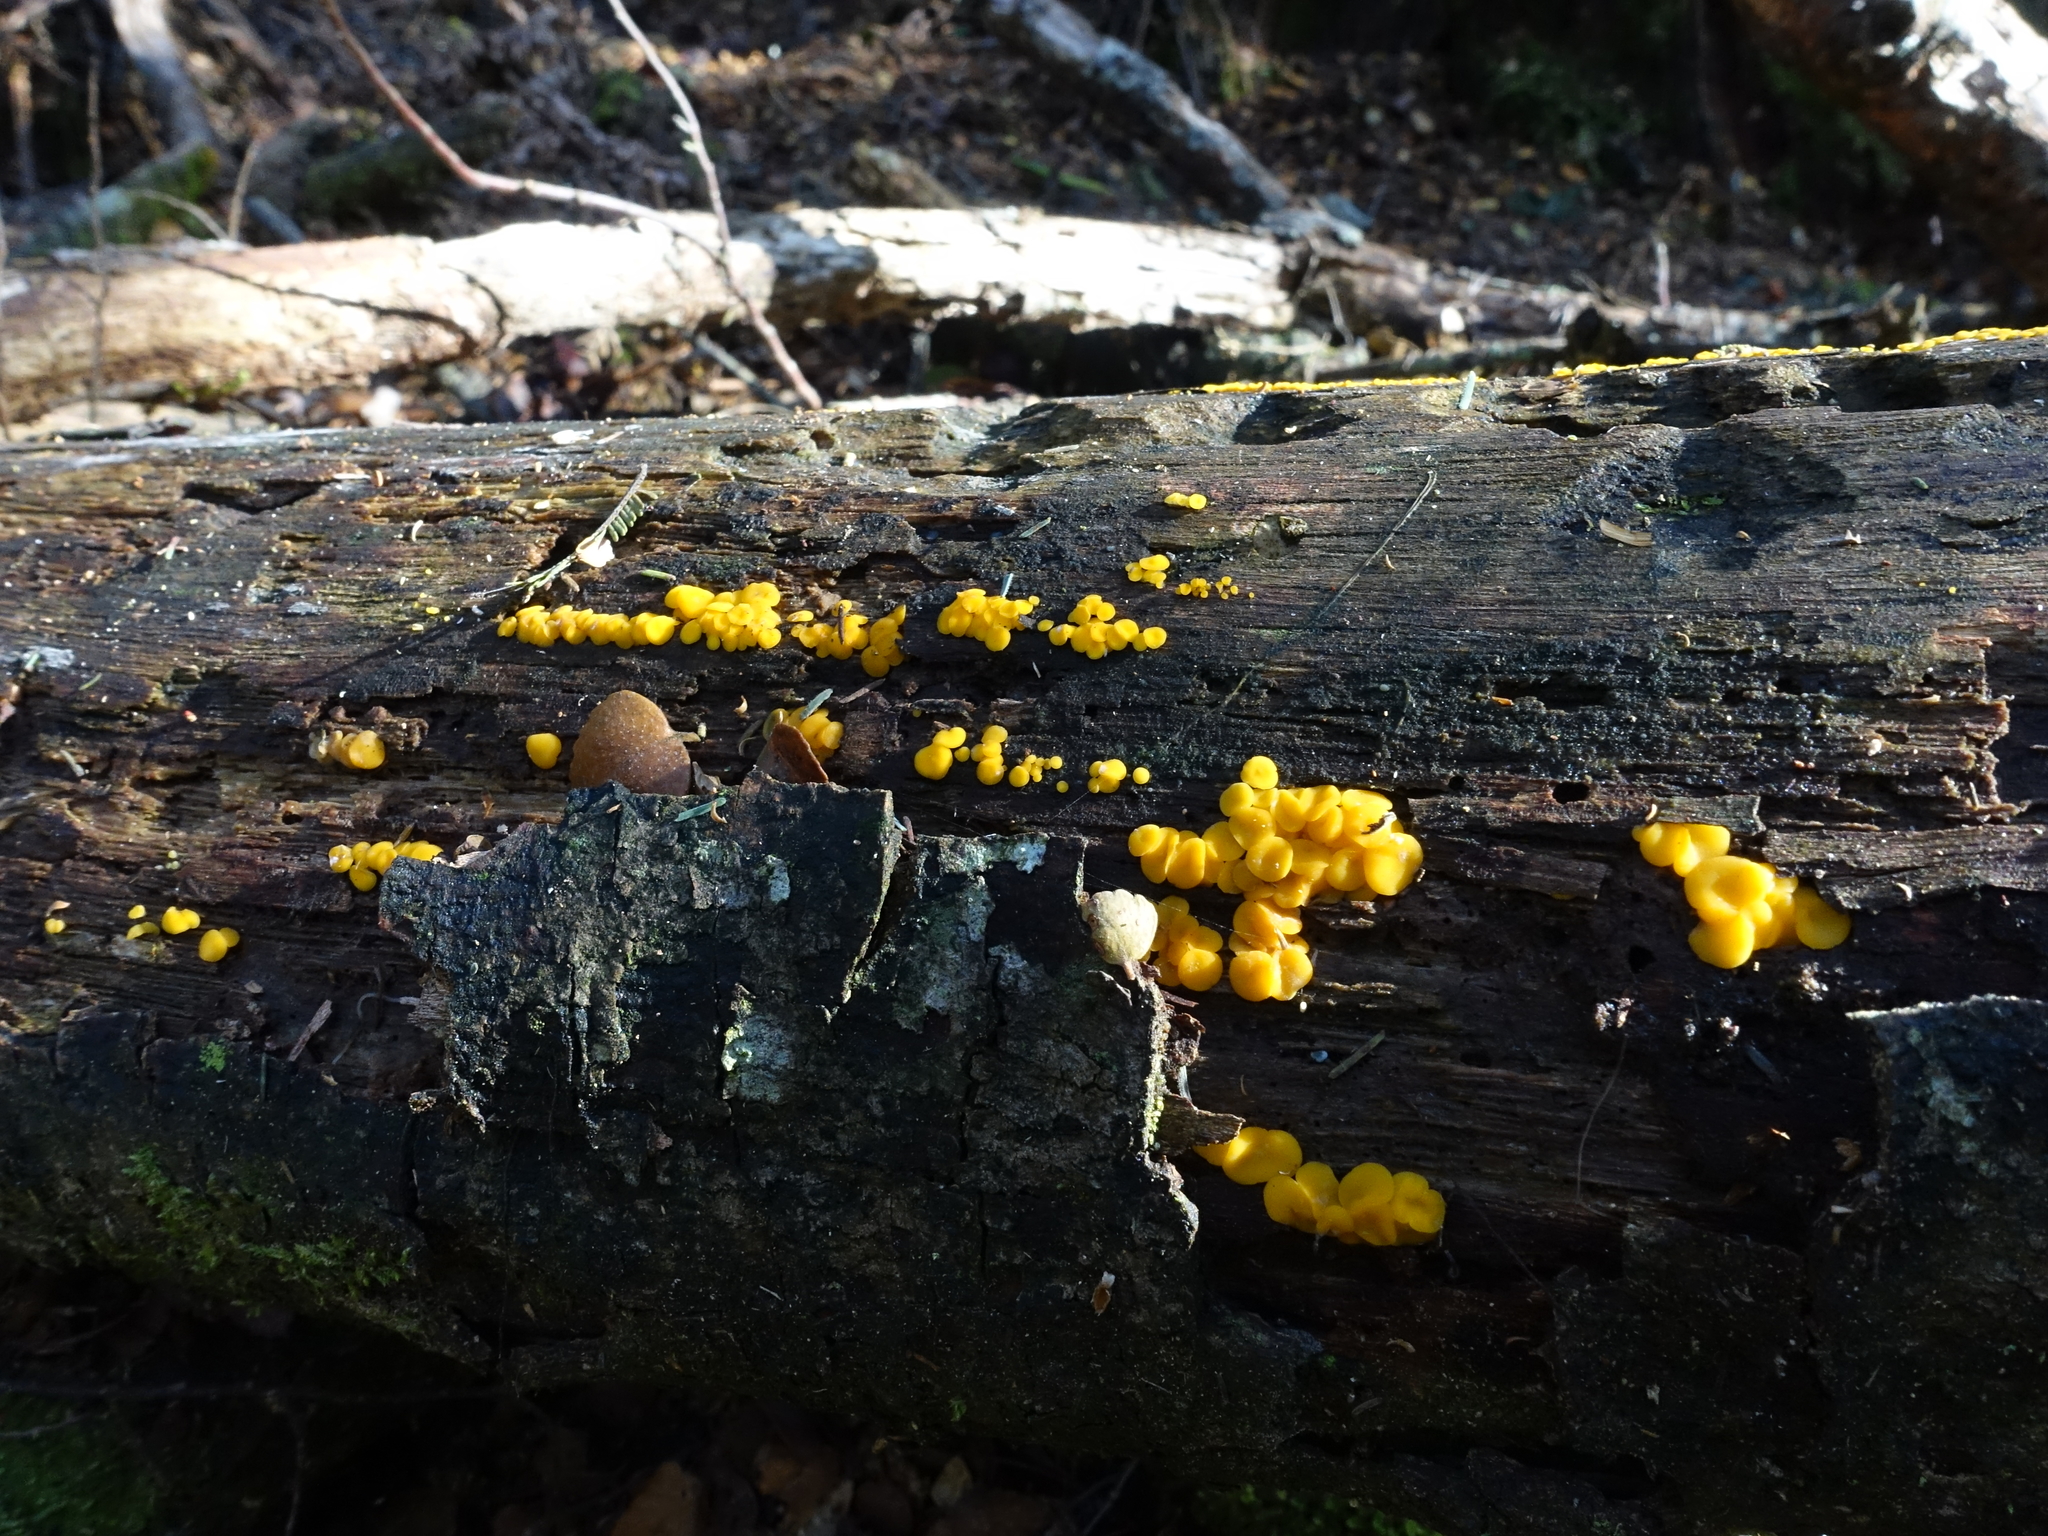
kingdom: Fungi
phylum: Ascomycota
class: Leotiomycetes
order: Helotiales
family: Pezizellaceae
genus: Calycina
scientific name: Calycina citrina
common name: Yellow fairy cups
